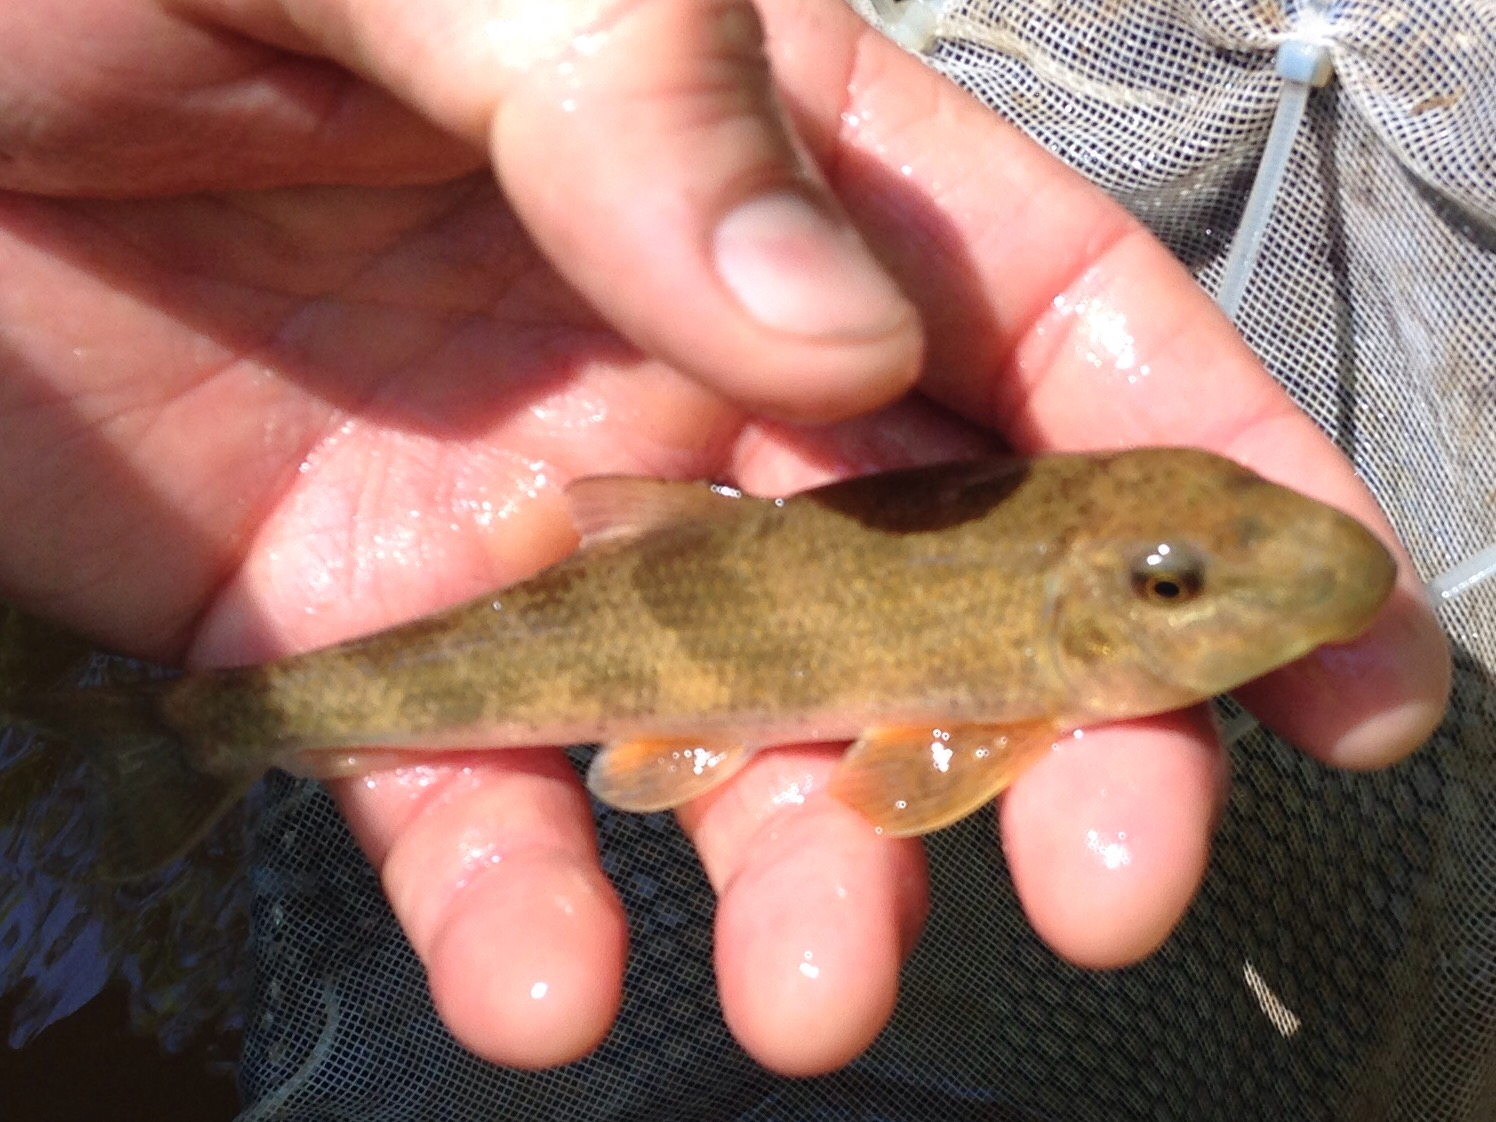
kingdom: Animalia
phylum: Chordata
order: Cypriniformes
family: Catostomidae
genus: Hypentelium
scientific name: Hypentelium nigricans
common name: Northern hog sucker
